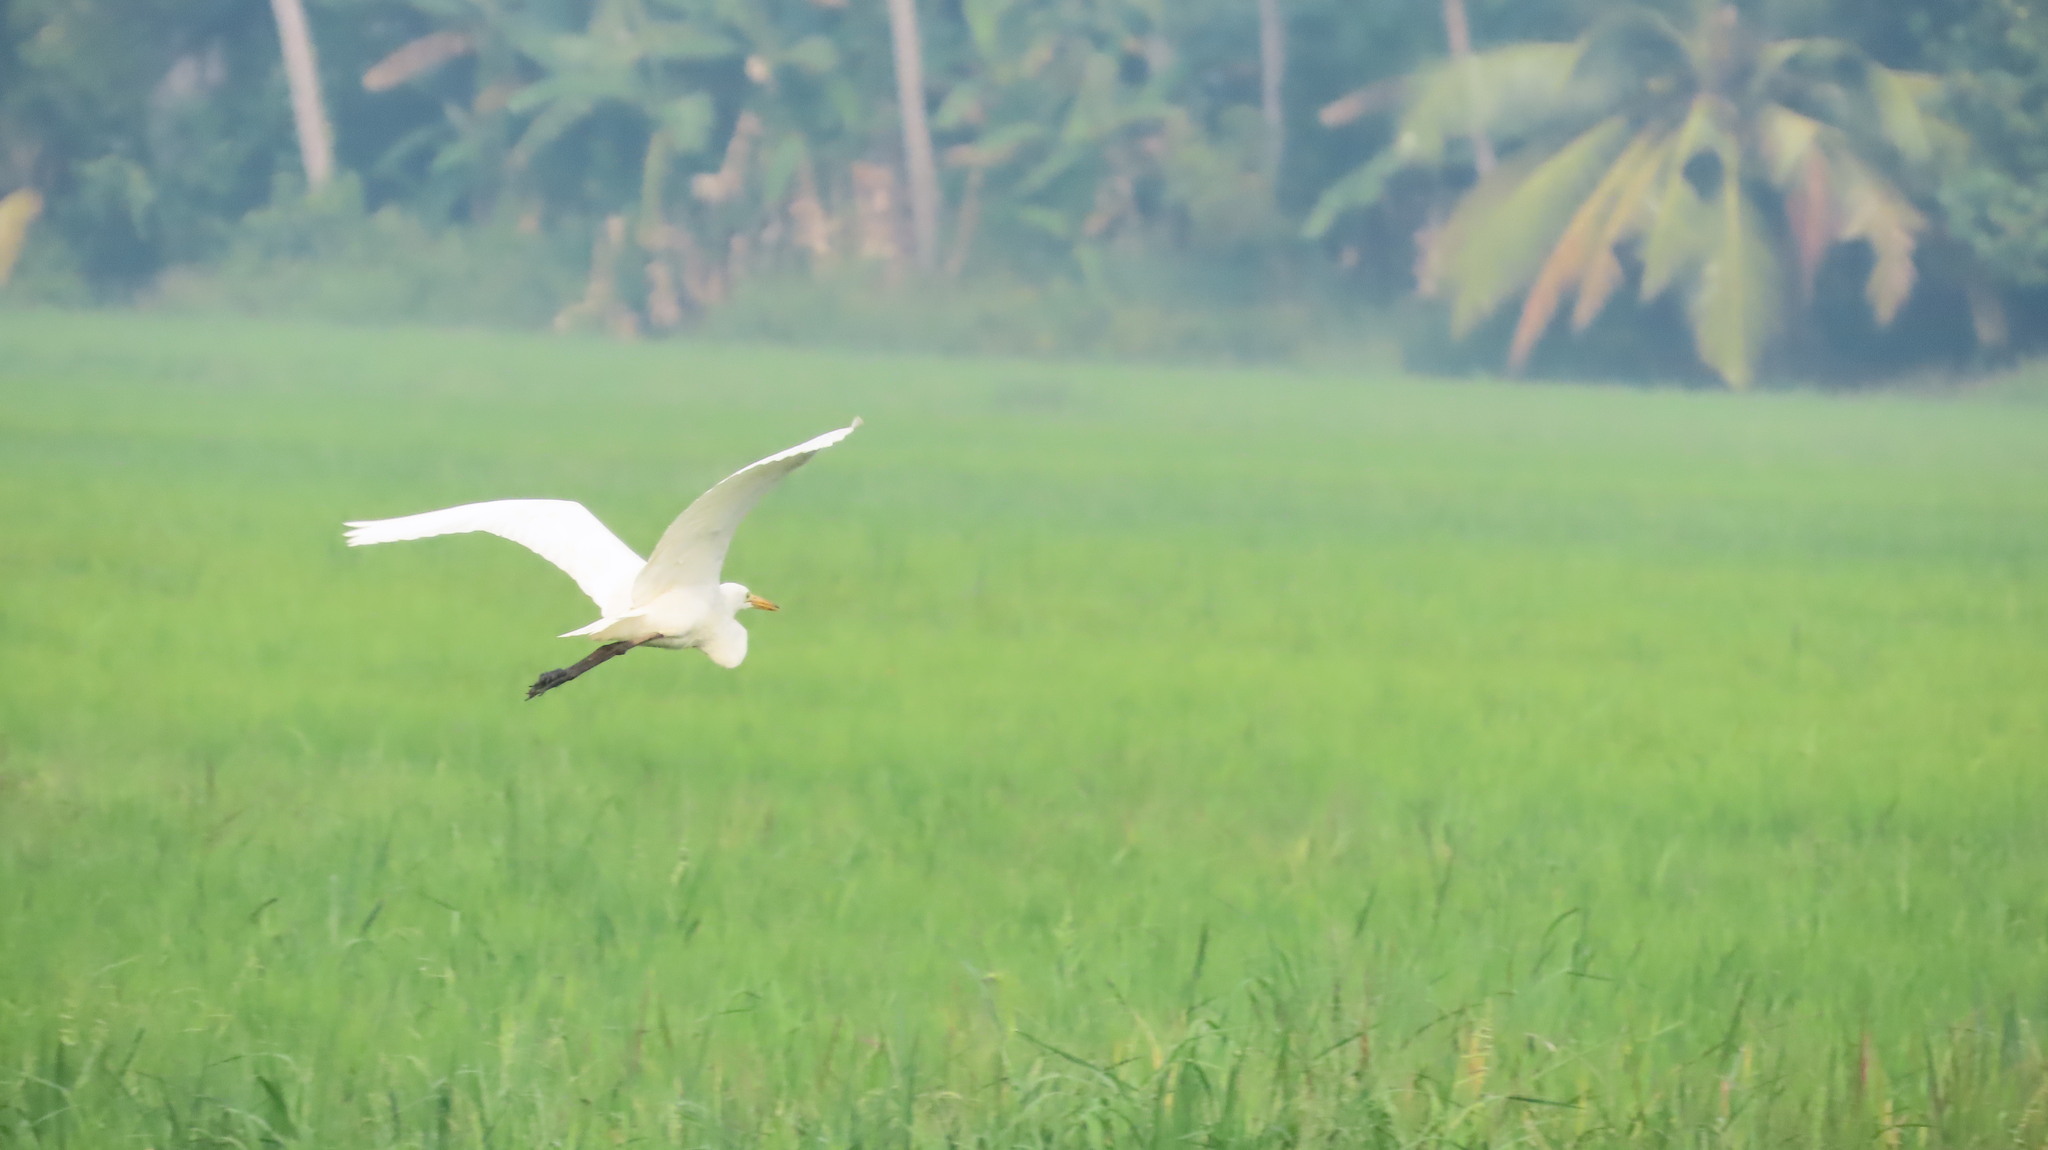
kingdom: Animalia
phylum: Chordata
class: Aves
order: Pelecaniformes
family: Ardeidae
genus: Egretta
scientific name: Egretta intermedia
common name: Intermediate egret
